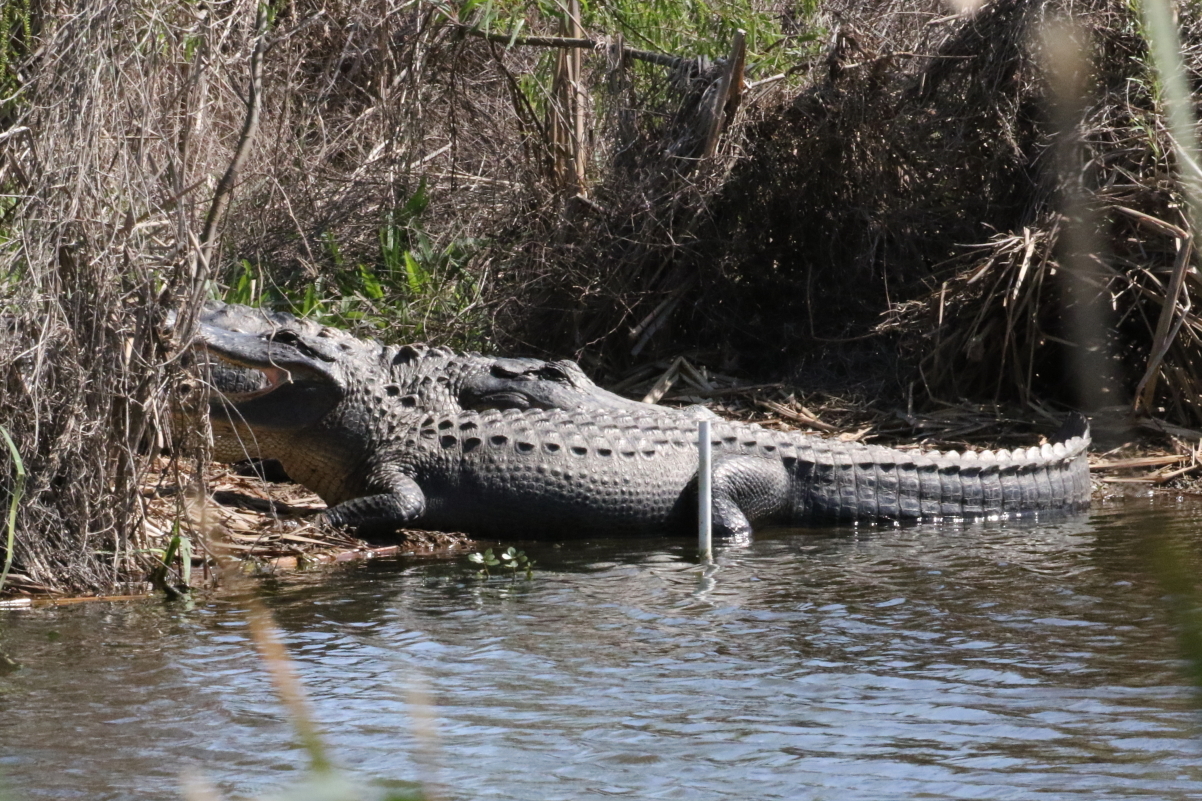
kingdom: Animalia
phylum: Chordata
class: Crocodylia
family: Alligatoridae
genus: Alligator
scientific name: Alligator mississippiensis
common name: American alligator
